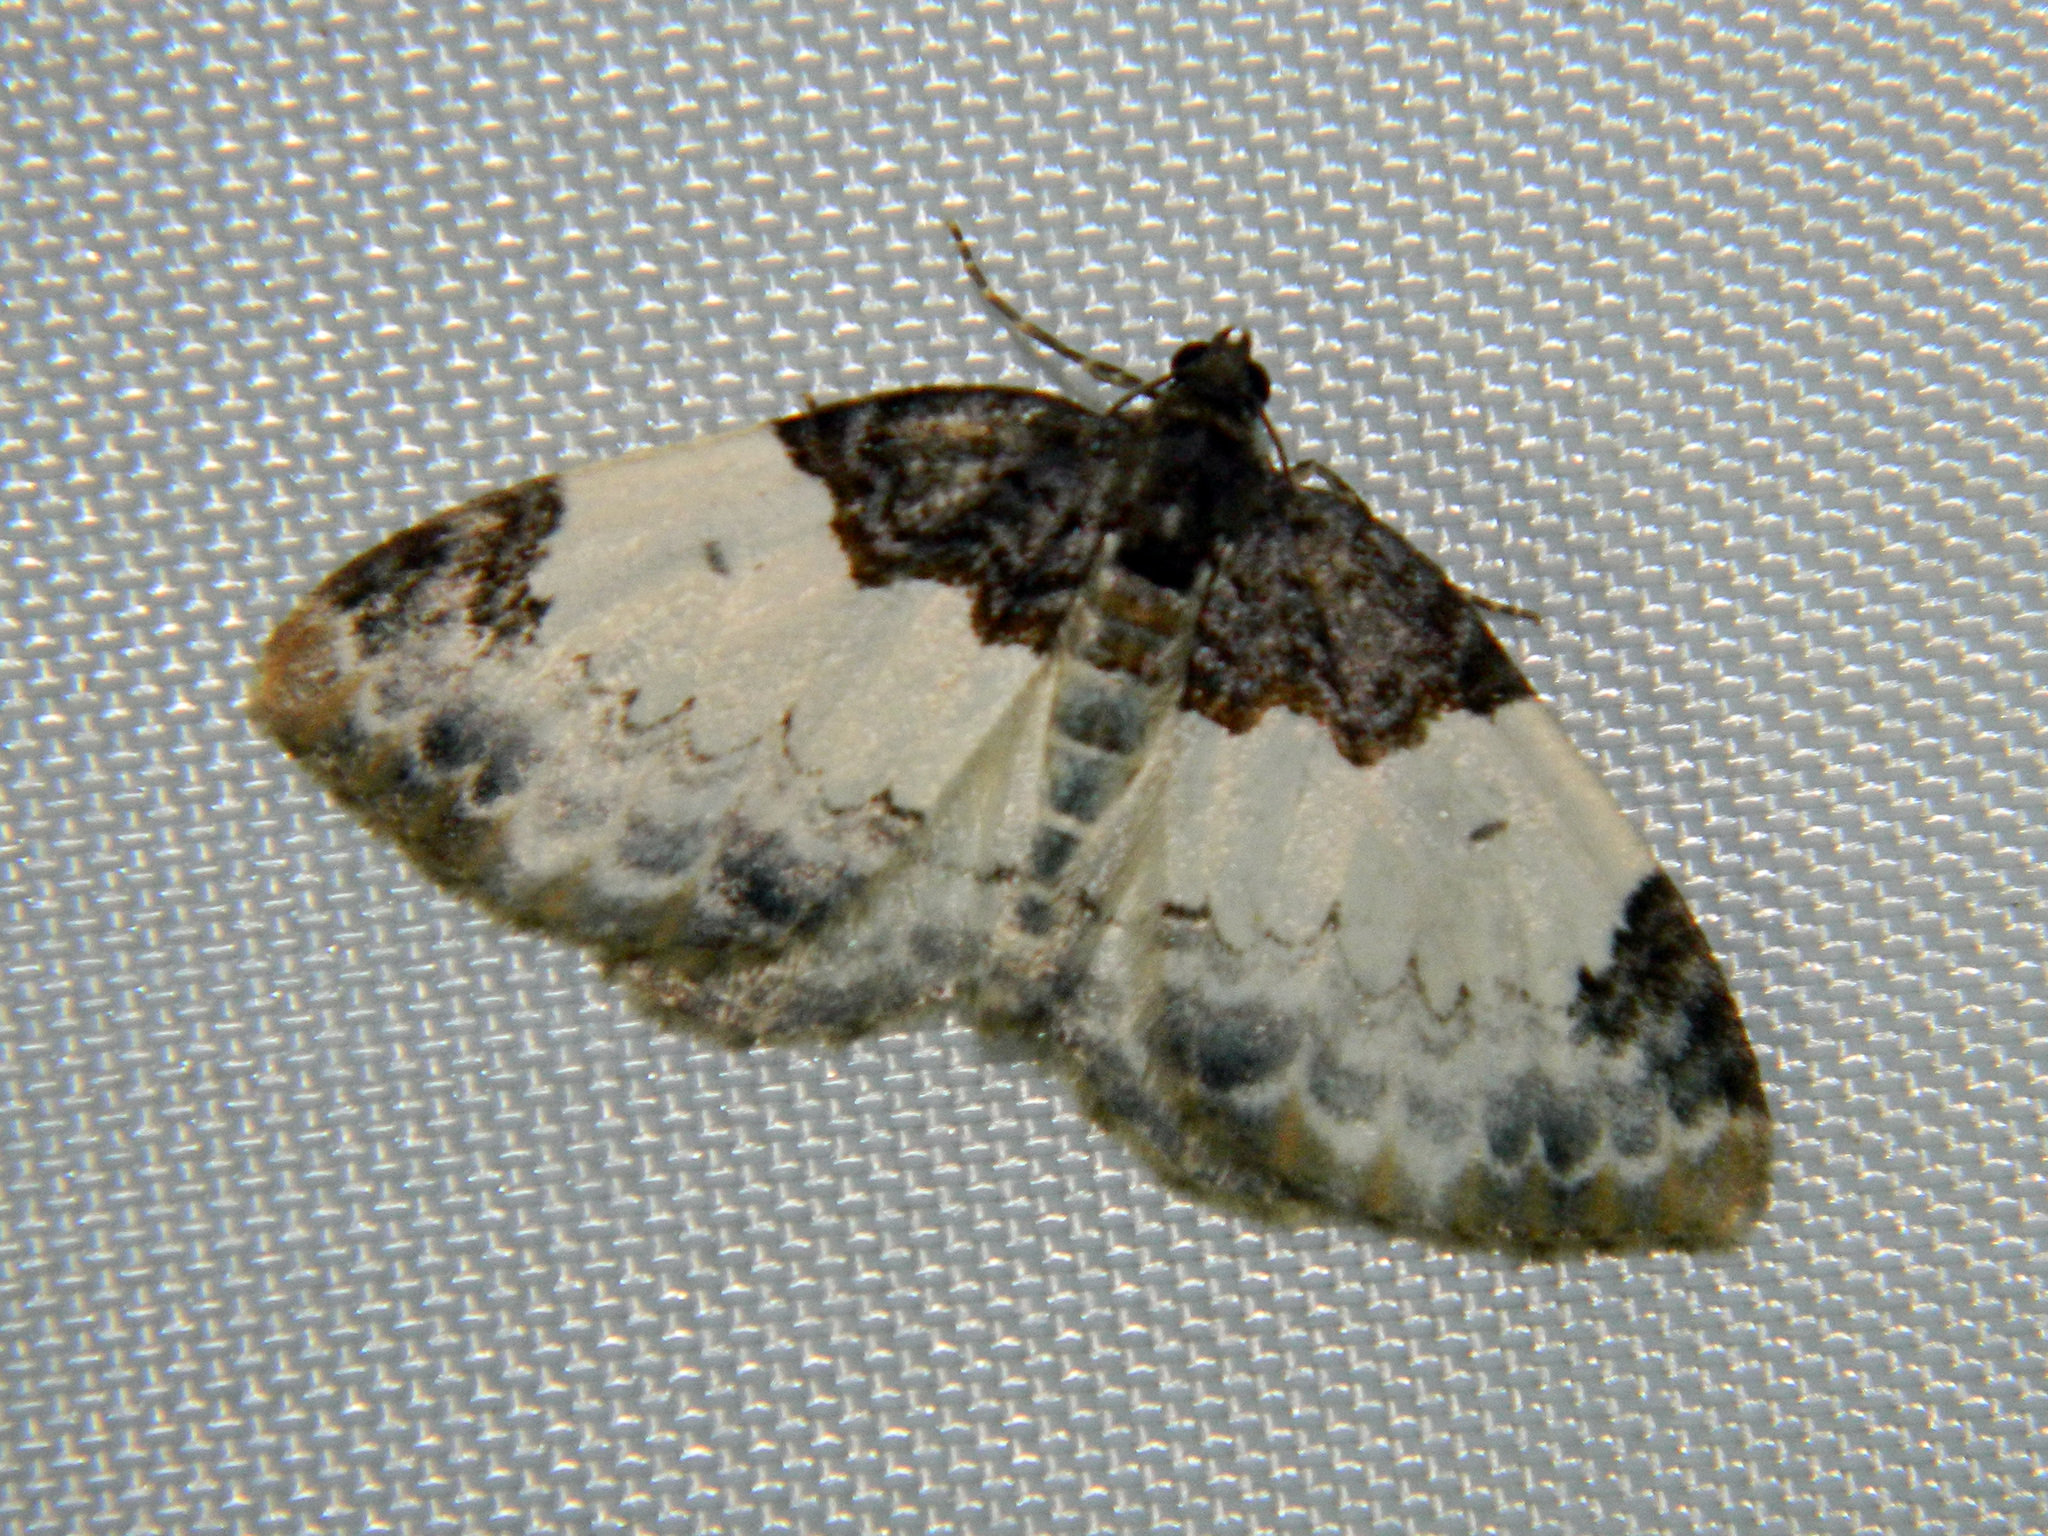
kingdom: Animalia
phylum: Arthropoda
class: Insecta
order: Lepidoptera
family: Geometridae
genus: Mesoleuca
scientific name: Mesoleuca ruficillata
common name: White-ribboned carpet moth
